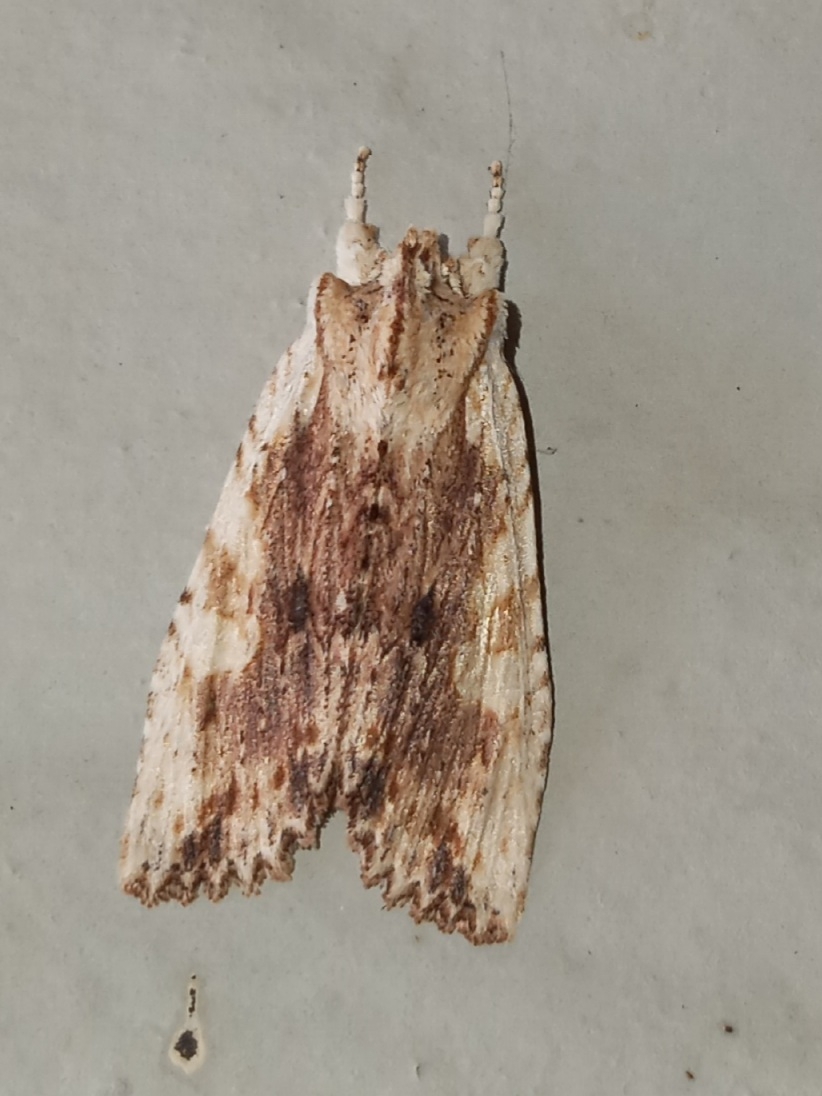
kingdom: Animalia
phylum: Arthropoda
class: Insecta
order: Lepidoptera
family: Noctuidae
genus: Lithophane
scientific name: Lithophane petulca
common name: Wanton pinion
